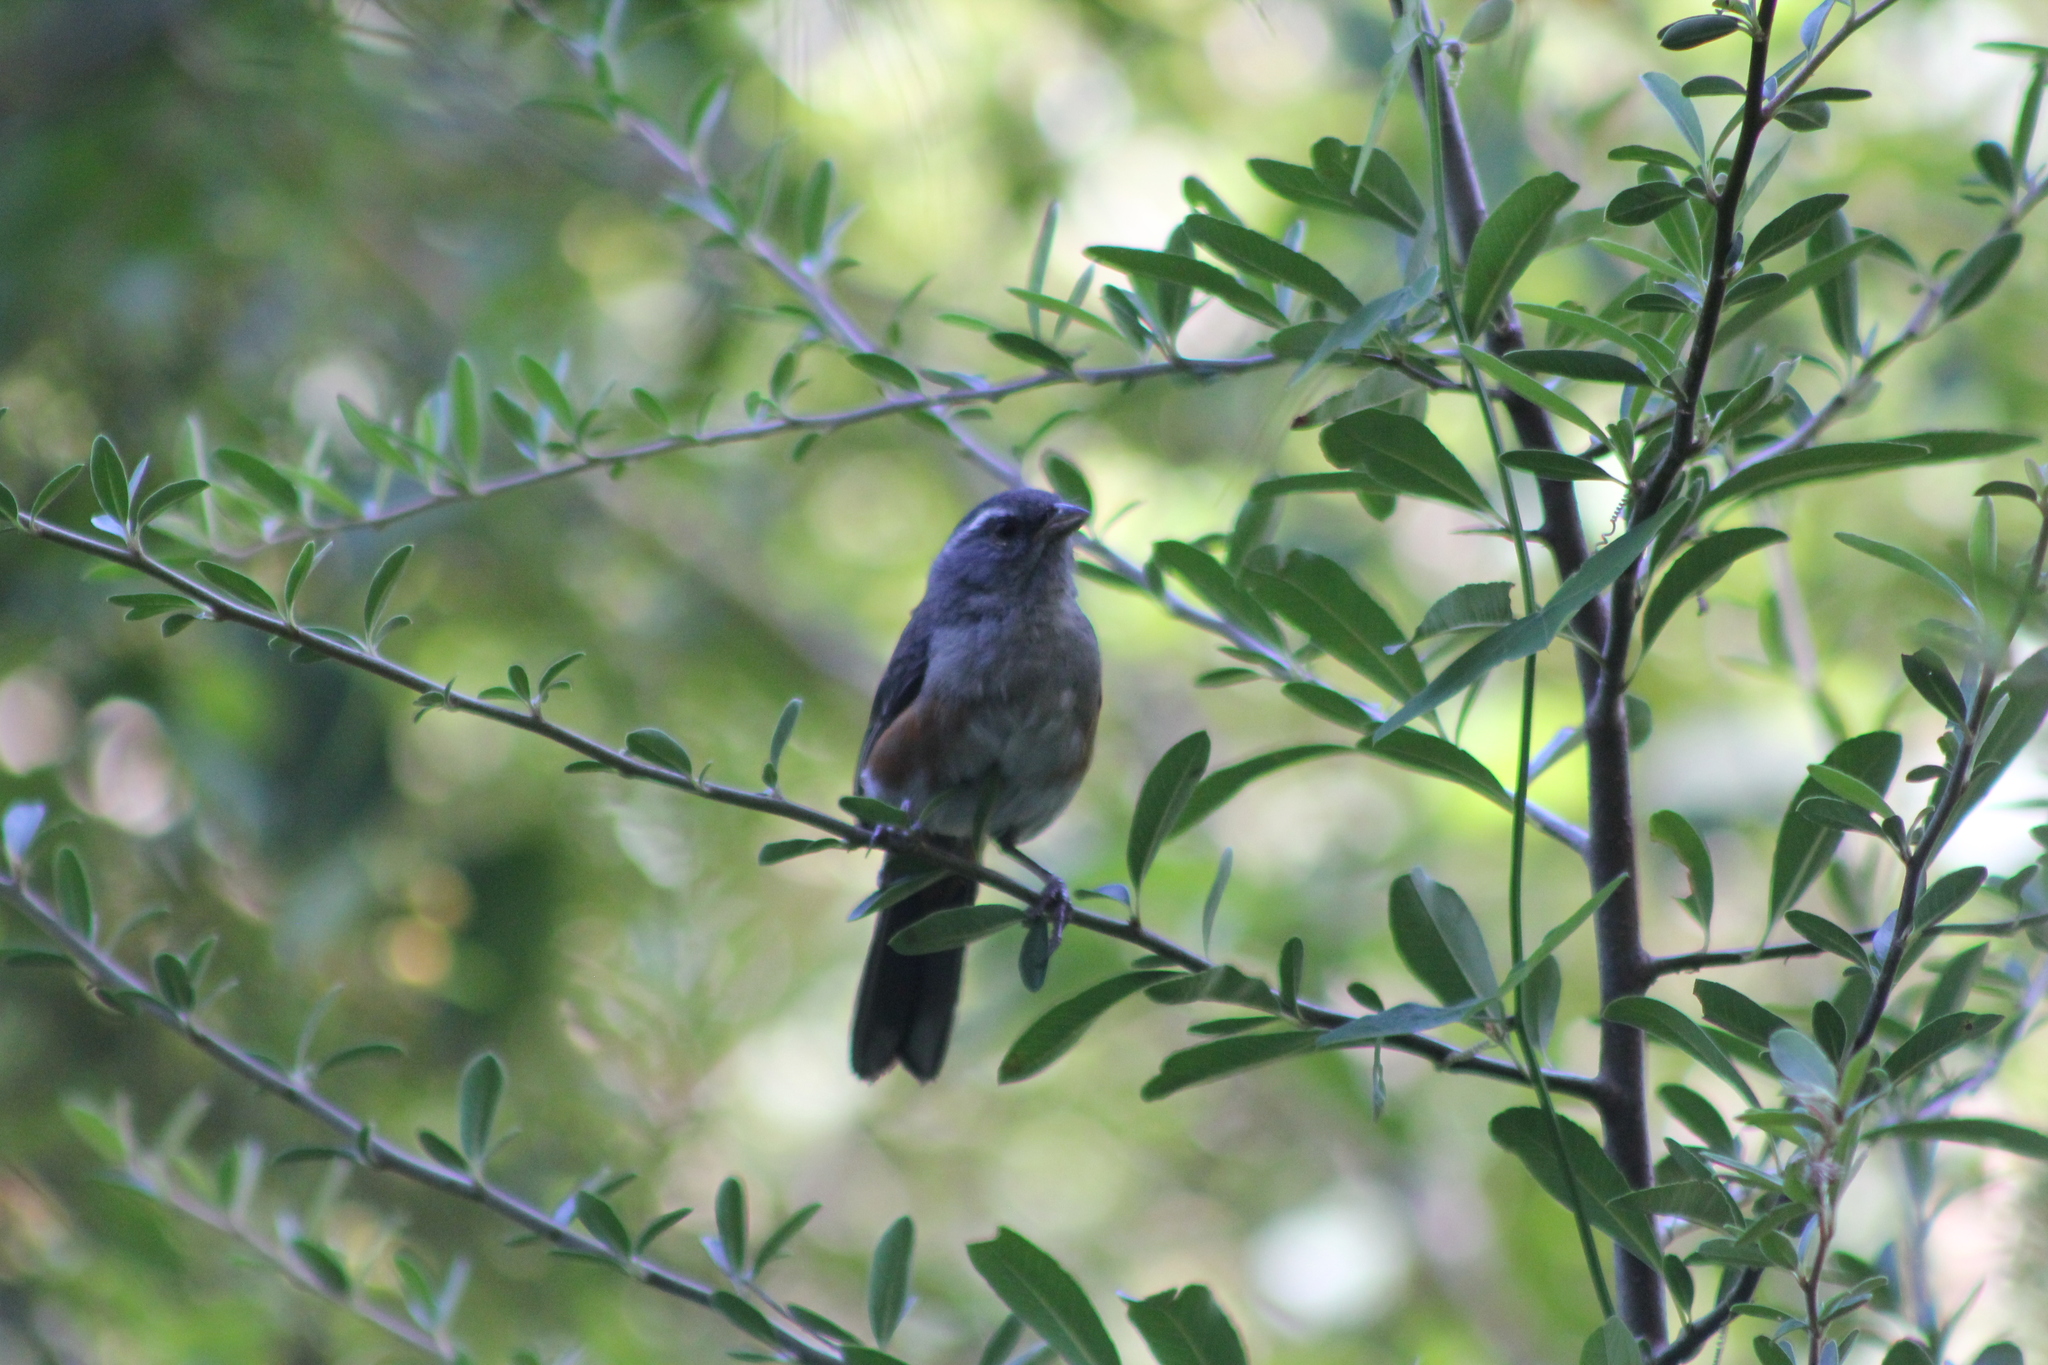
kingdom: Animalia
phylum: Chordata
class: Aves
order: Passeriformes
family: Thraupidae
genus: Microspingus
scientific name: Microspingus cabanisi
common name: Gray-throated warbling-finch
